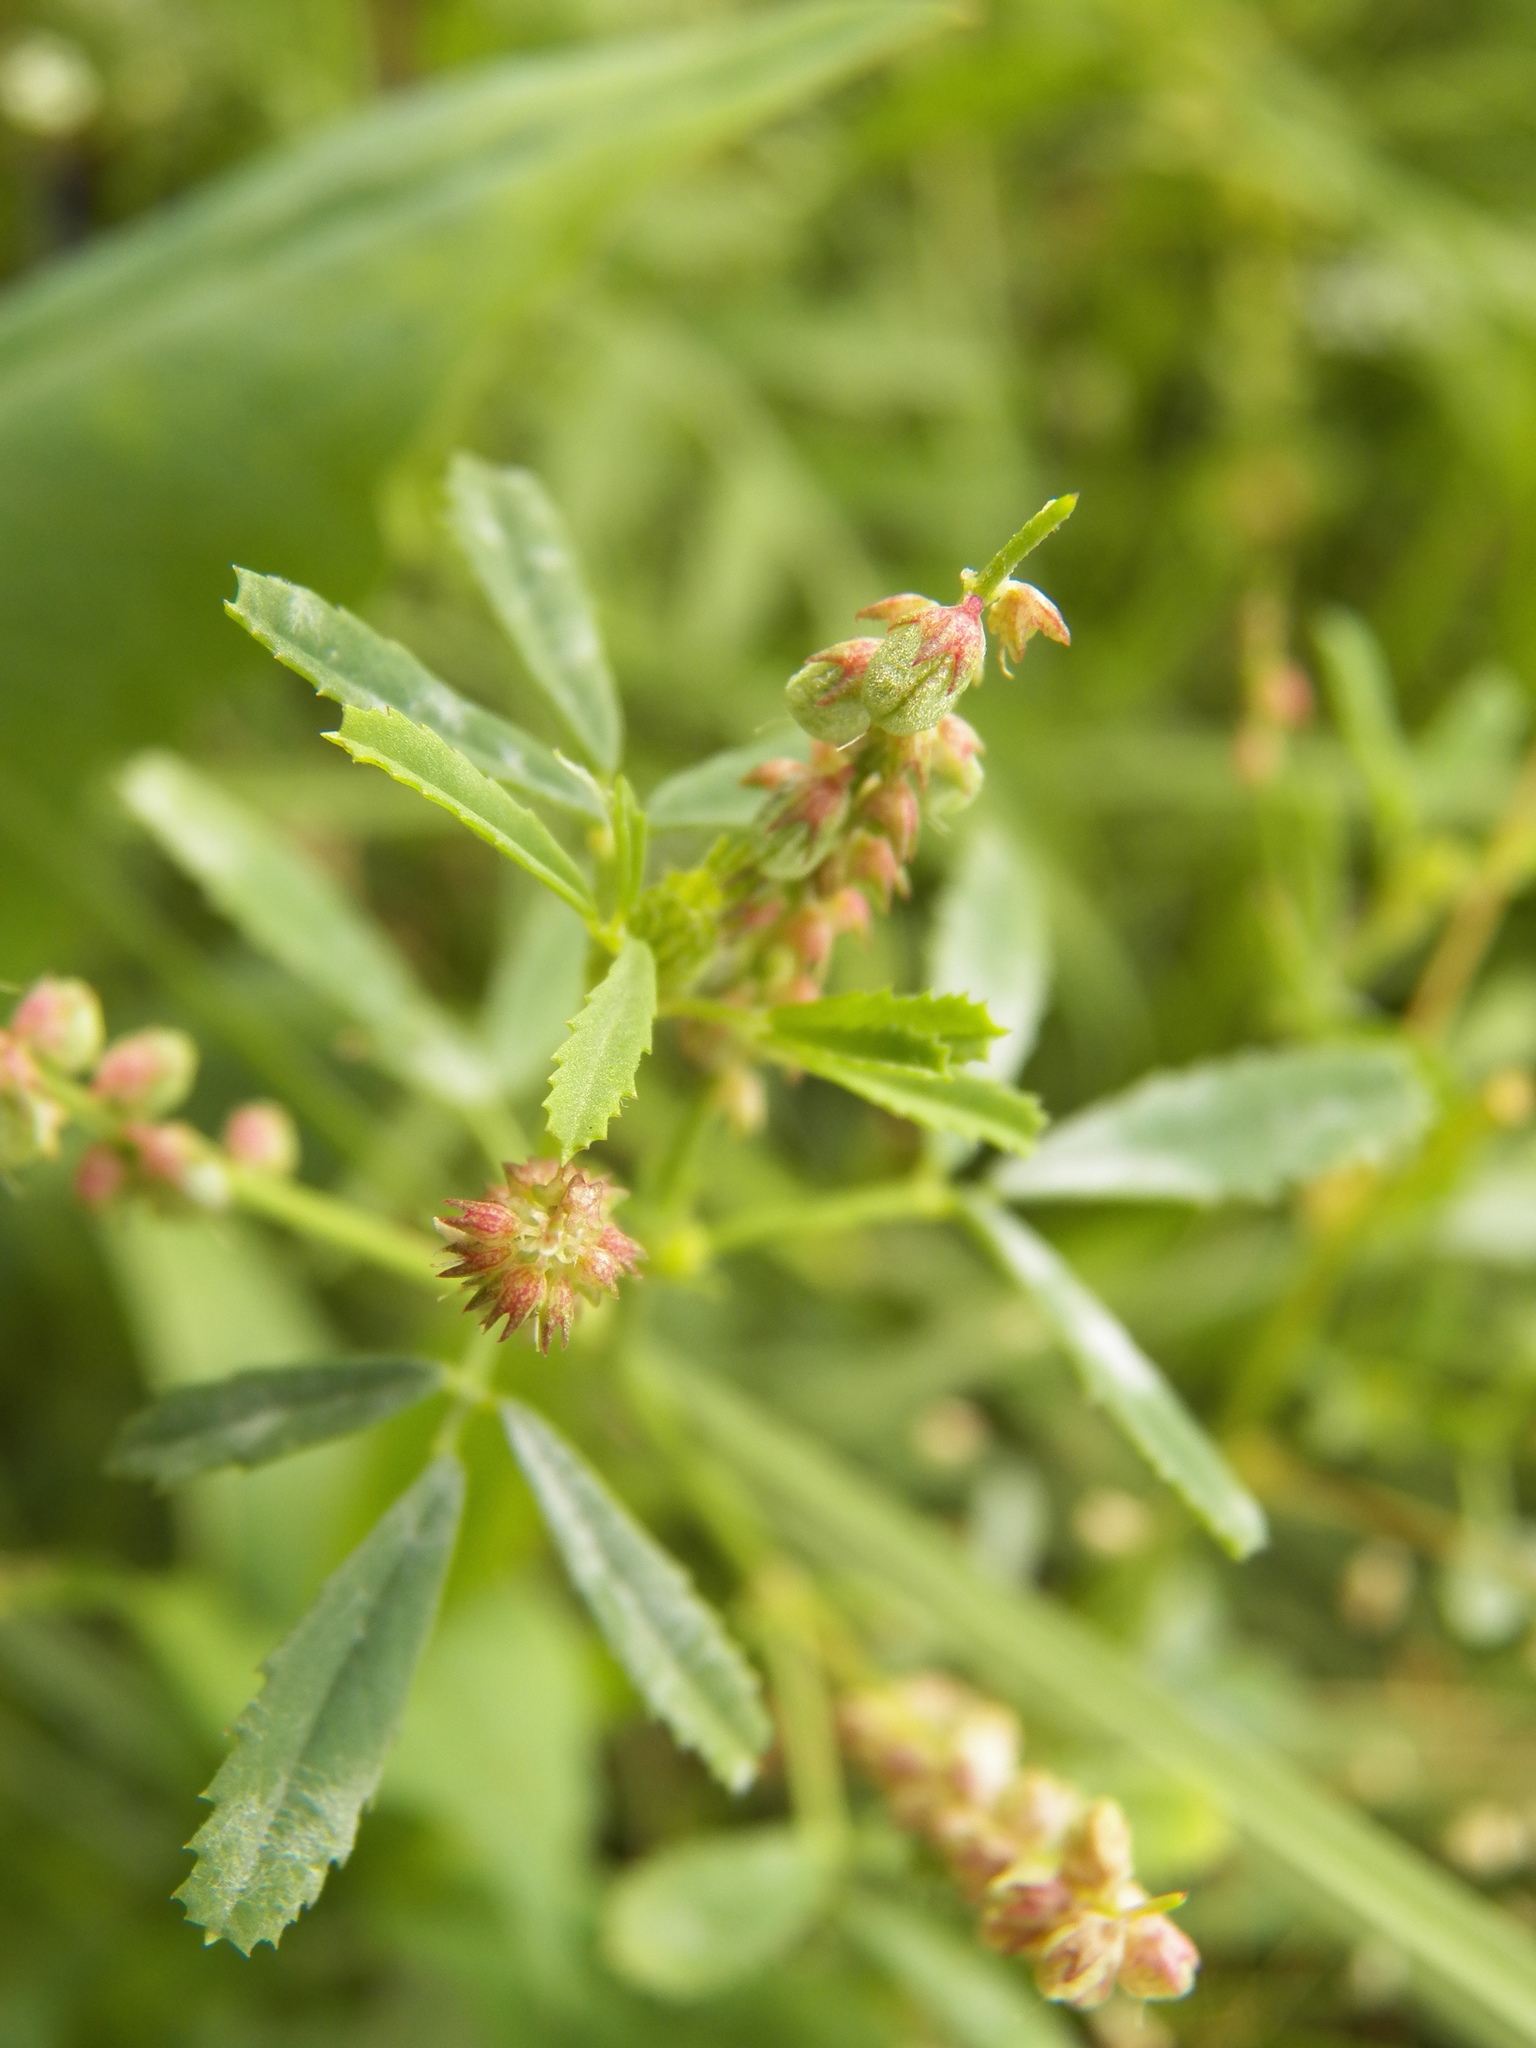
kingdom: Plantae
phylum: Tracheophyta
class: Magnoliopsida
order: Fabales
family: Fabaceae
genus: Melilotus
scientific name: Melilotus indicus
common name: Small melilot
